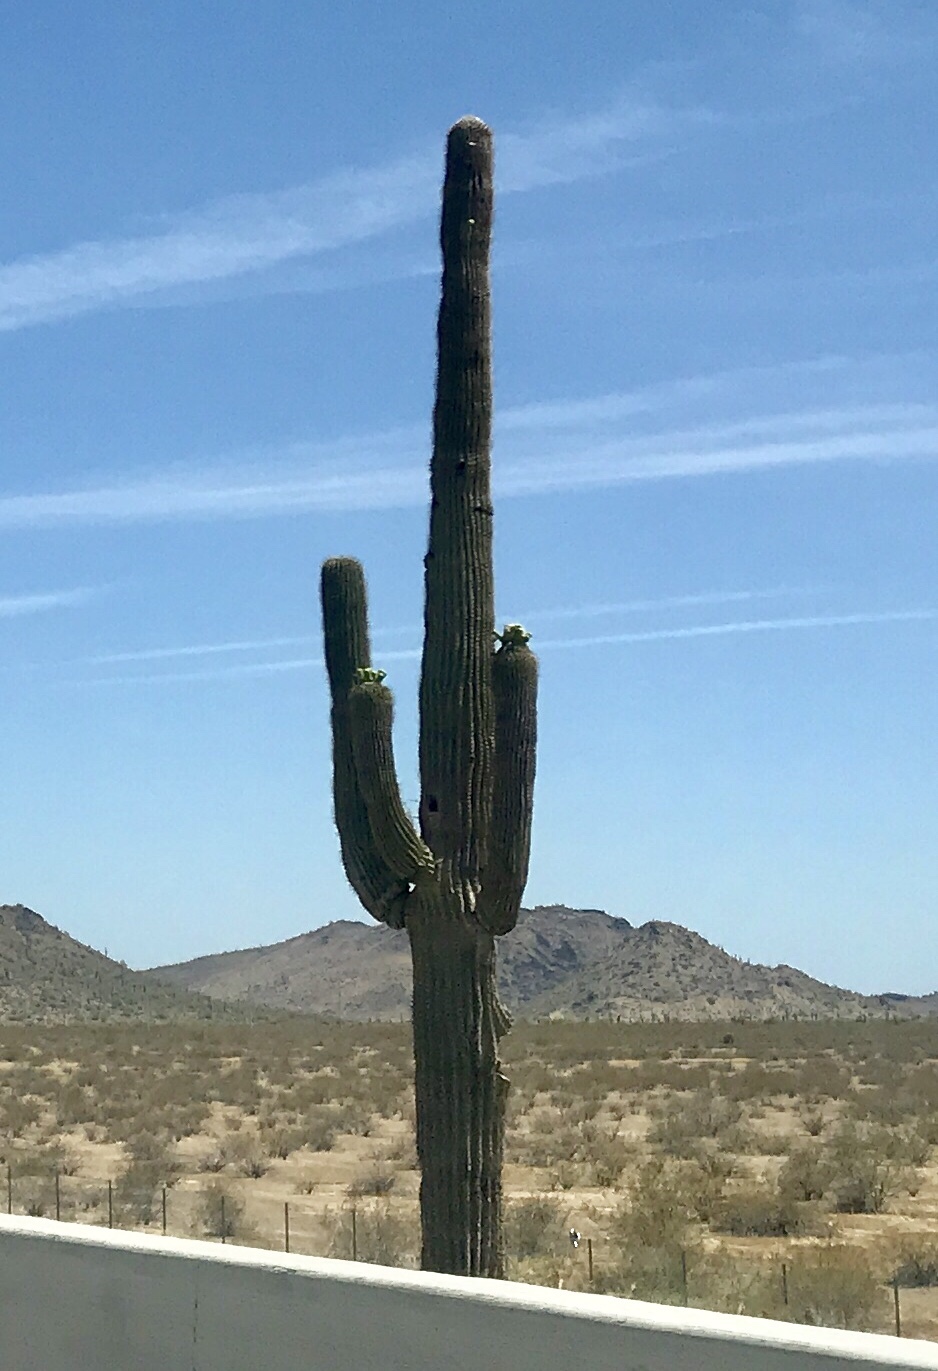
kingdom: Plantae
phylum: Tracheophyta
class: Magnoliopsida
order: Caryophyllales
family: Cactaceae
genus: Carnegiea
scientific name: Carnegiea gigantea
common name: Saguaro
